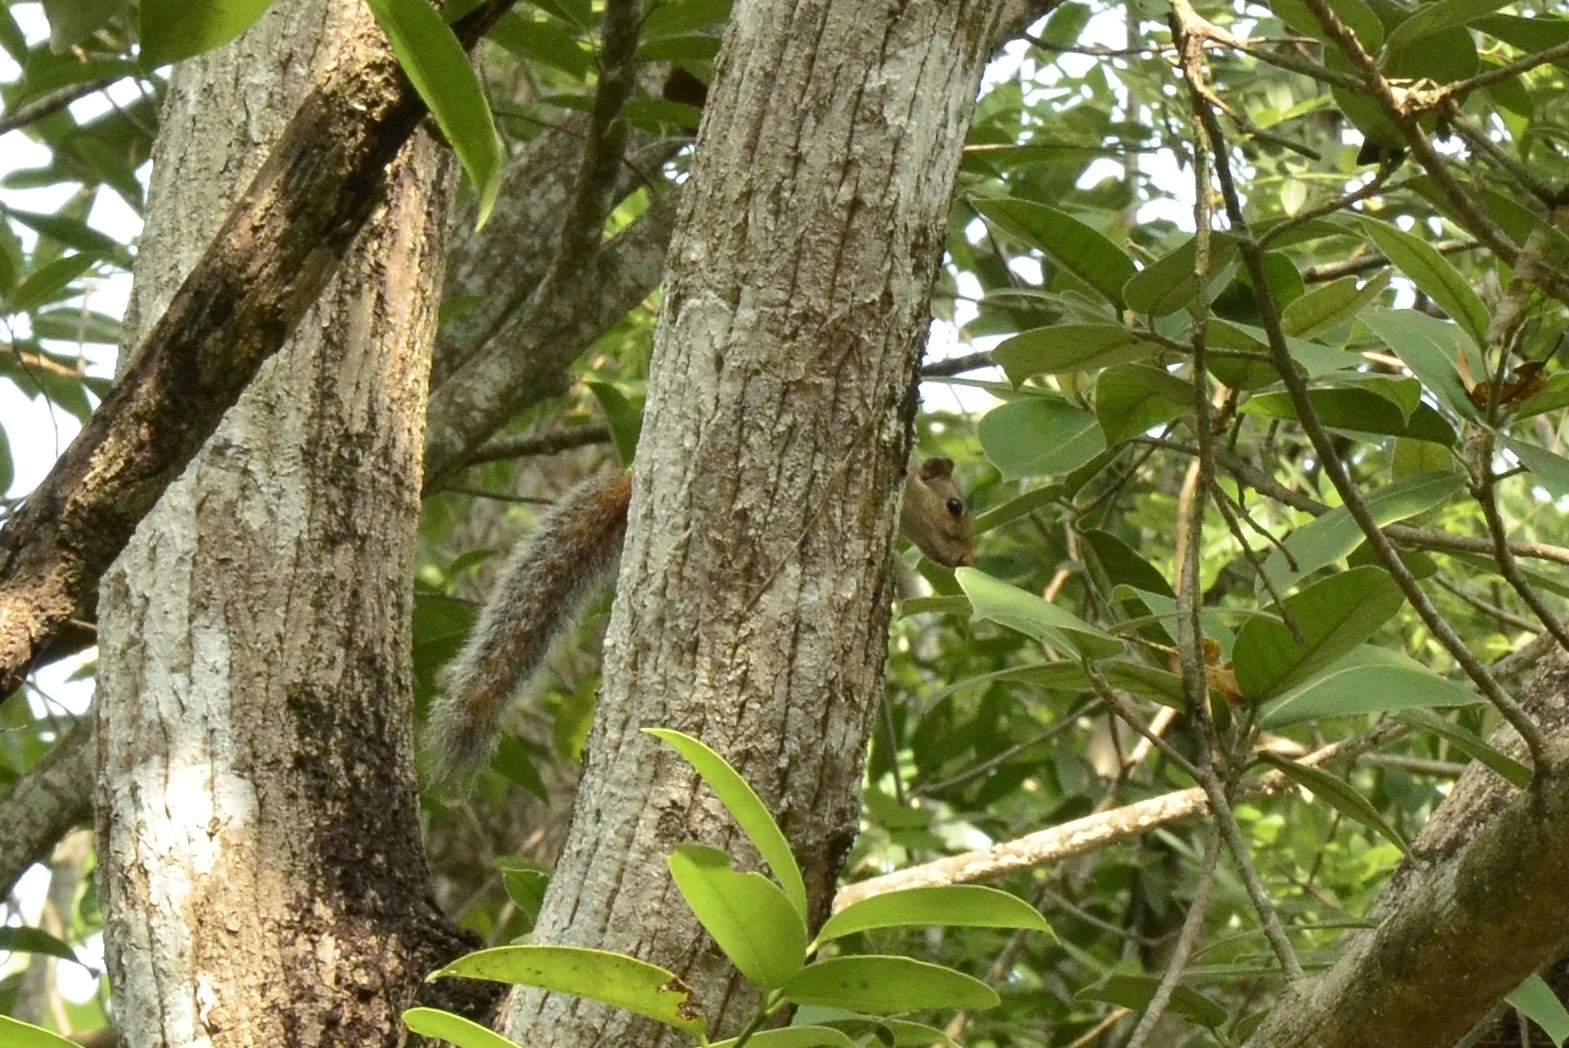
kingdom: Animalia
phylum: Chordata
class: Mammalia
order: Rodentia
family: Sciuridae
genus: Funambulus
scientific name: Funambulus tristriatus
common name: Jungle palm squirrel
